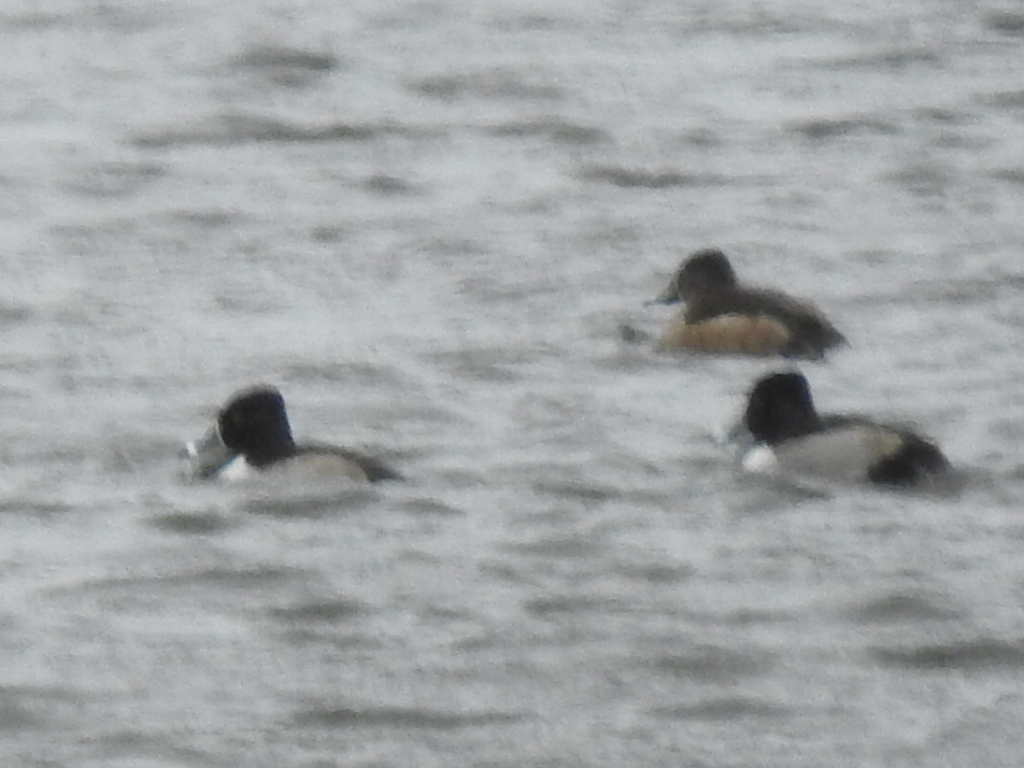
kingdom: Animalia
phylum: Chordata
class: Aves
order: Anseriformes
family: Anatidae
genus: Aythya
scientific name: Aythya collaris
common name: Ring-necked duck
